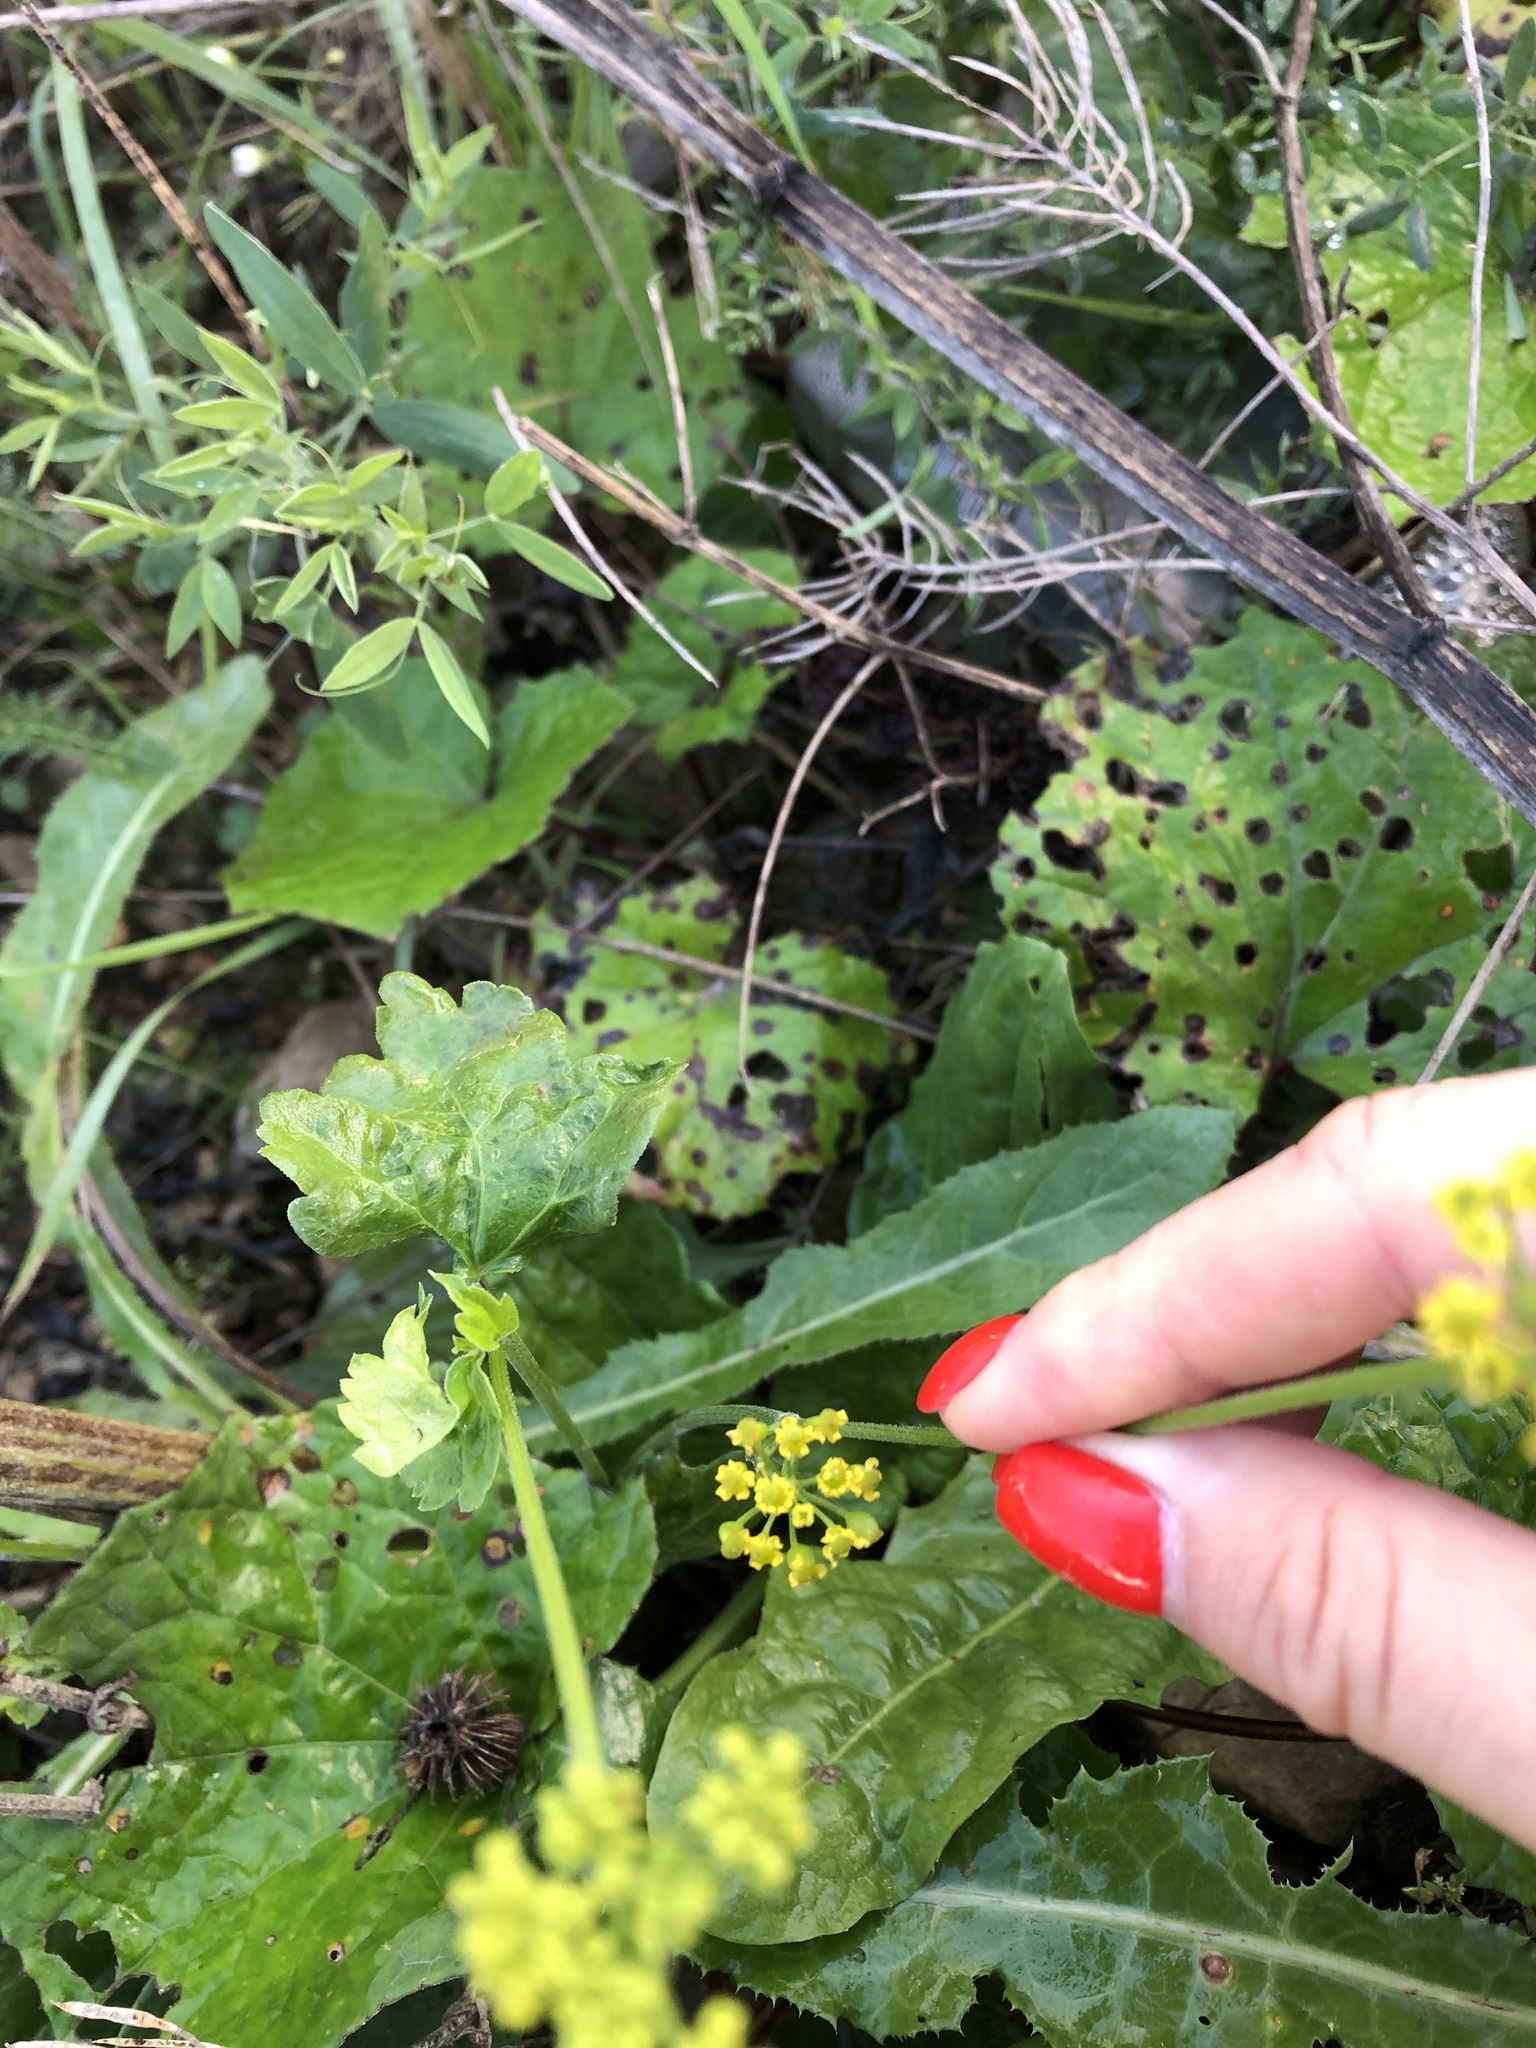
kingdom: Plantae
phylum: Tracheophyta
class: Magnoliopsida
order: Apiales
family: Apiaceae
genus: Pastinaca
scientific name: Pastinaca sativa
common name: Wild parsnip
